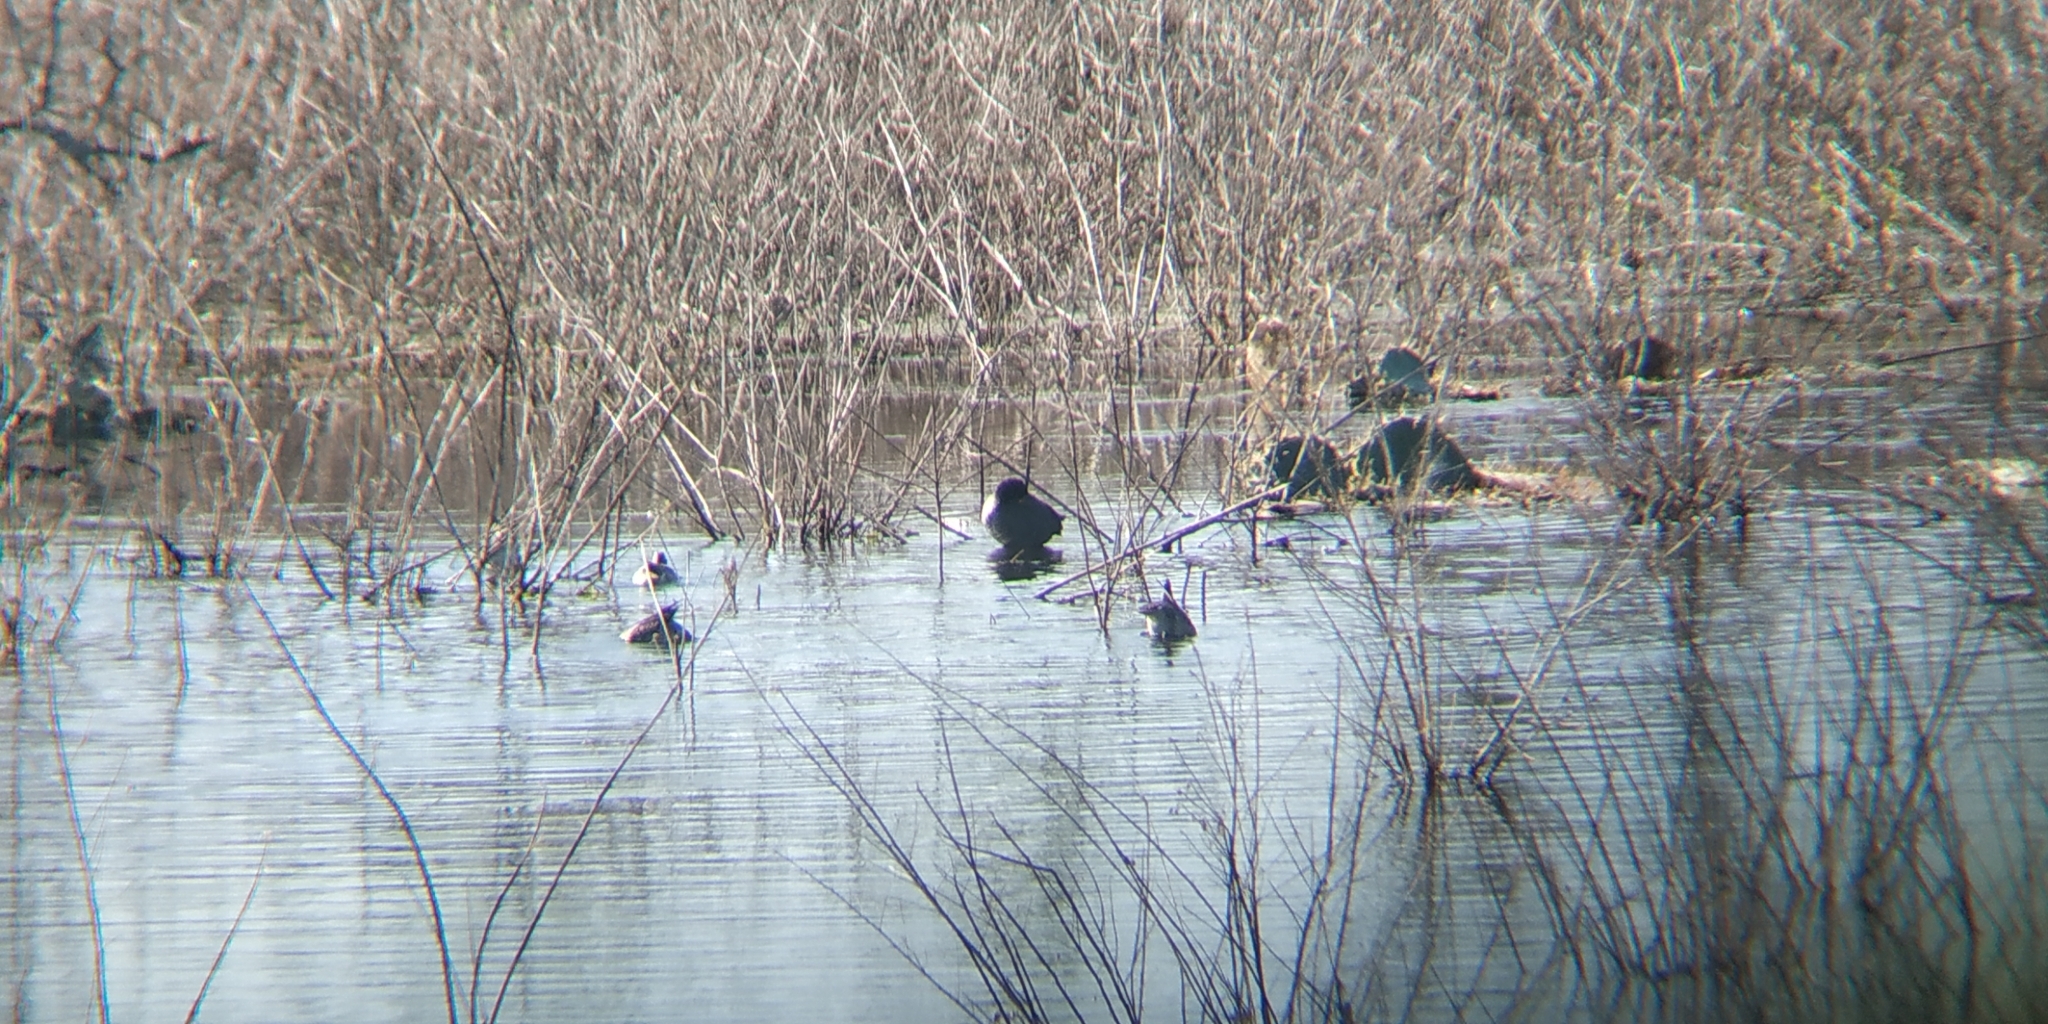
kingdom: Animalia
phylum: Chordata
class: Aves
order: Gruiformes
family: Rallidae
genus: Fulica
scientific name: Fulica americana
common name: American coot
